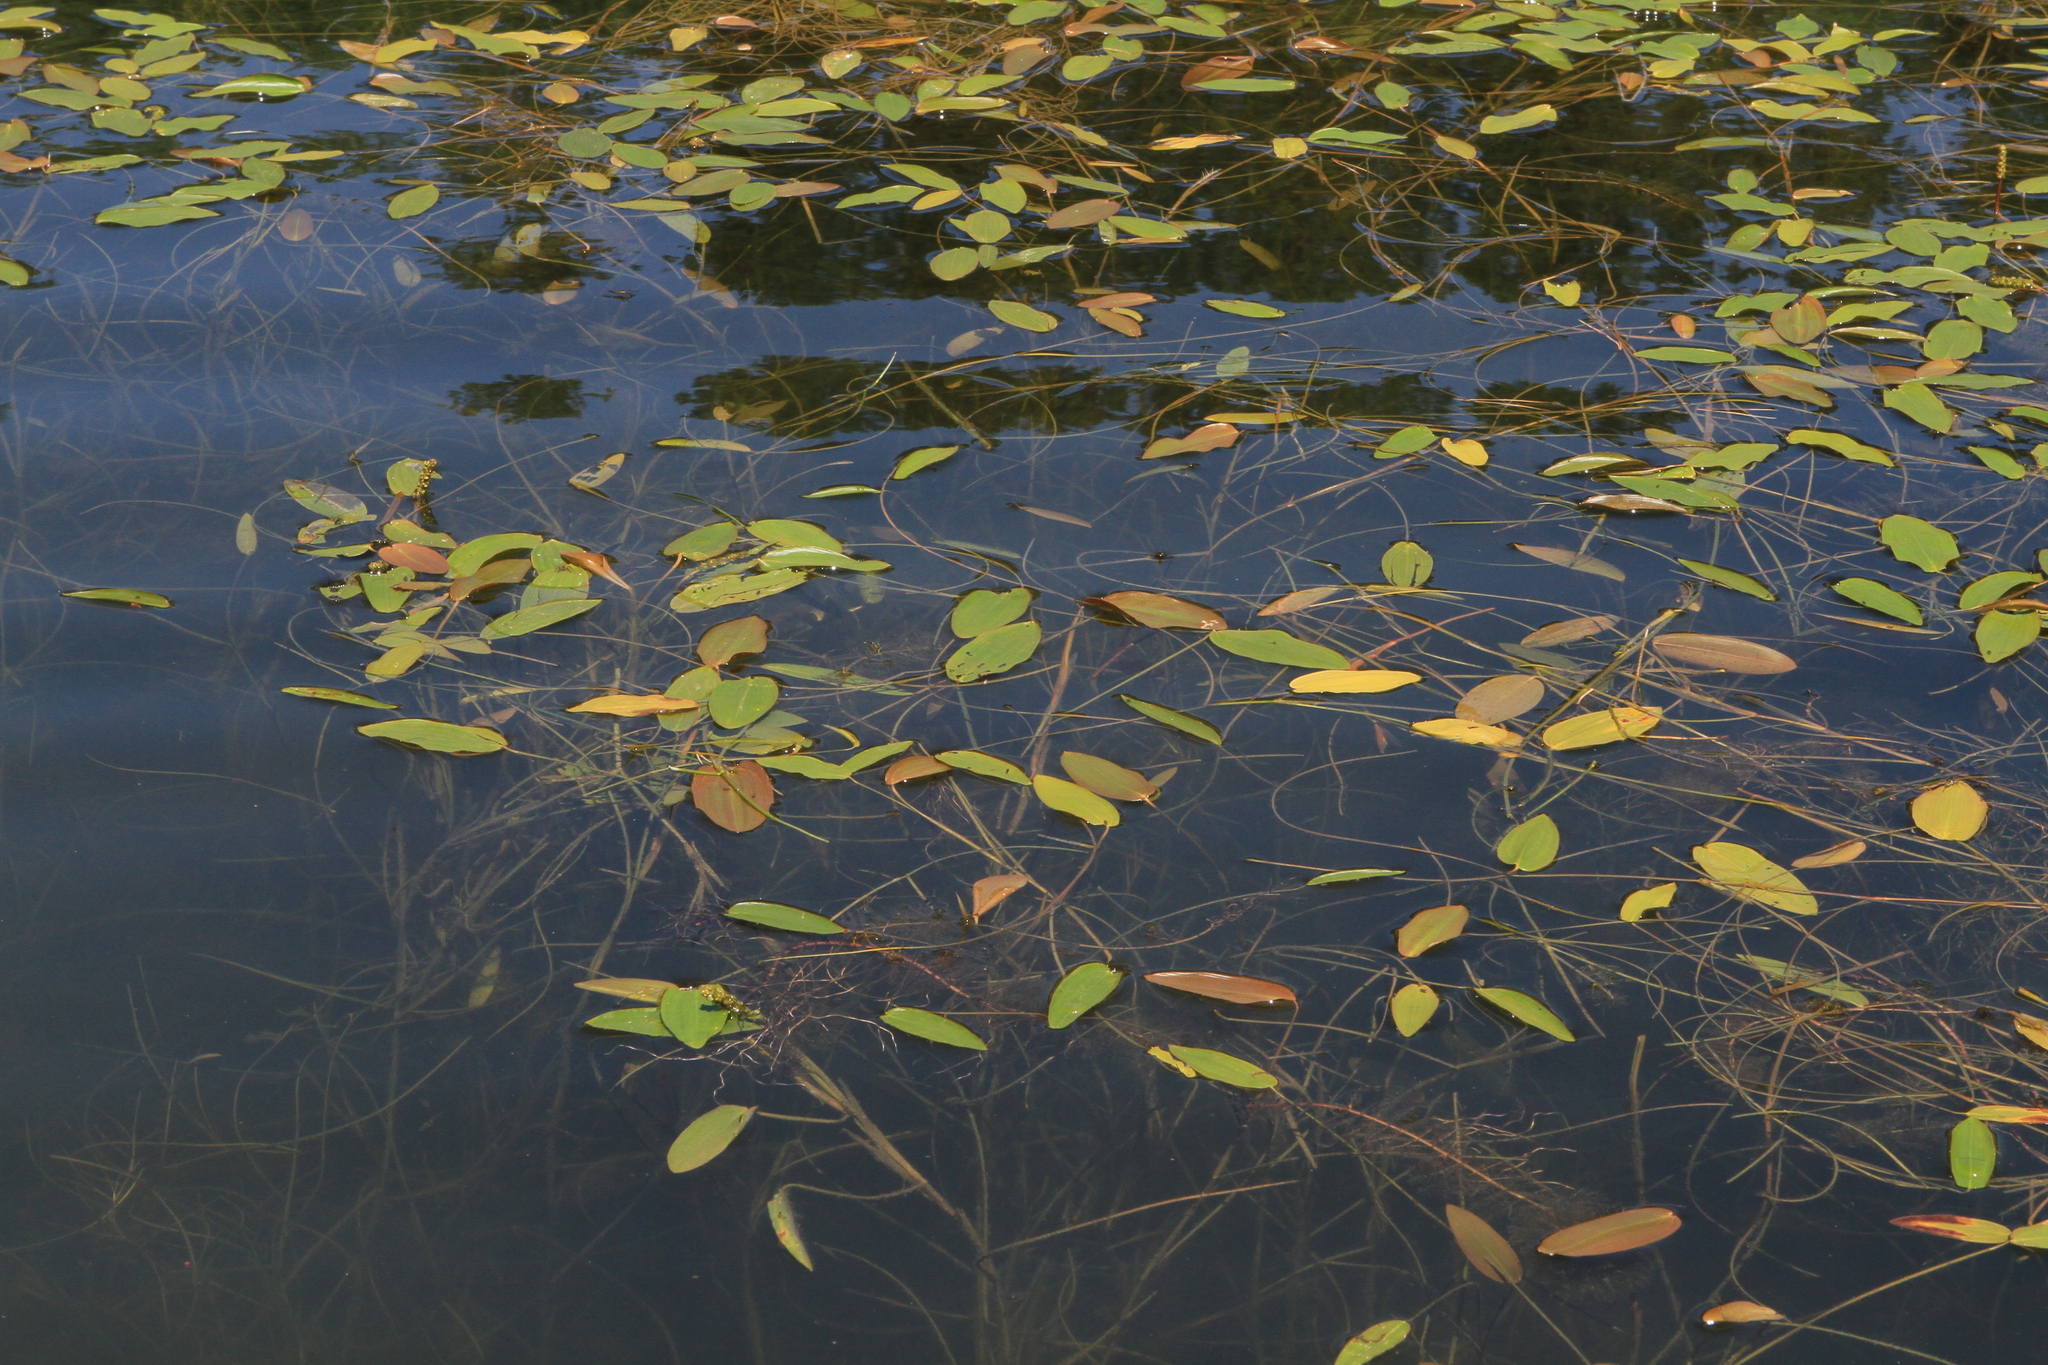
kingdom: Plantae
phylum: Tracheophyta
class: Liliopsida
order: Alismatales
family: Potamogetonaceae
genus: Potamogeton
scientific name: Potamogeton natans
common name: Broad-leaved pondweed
